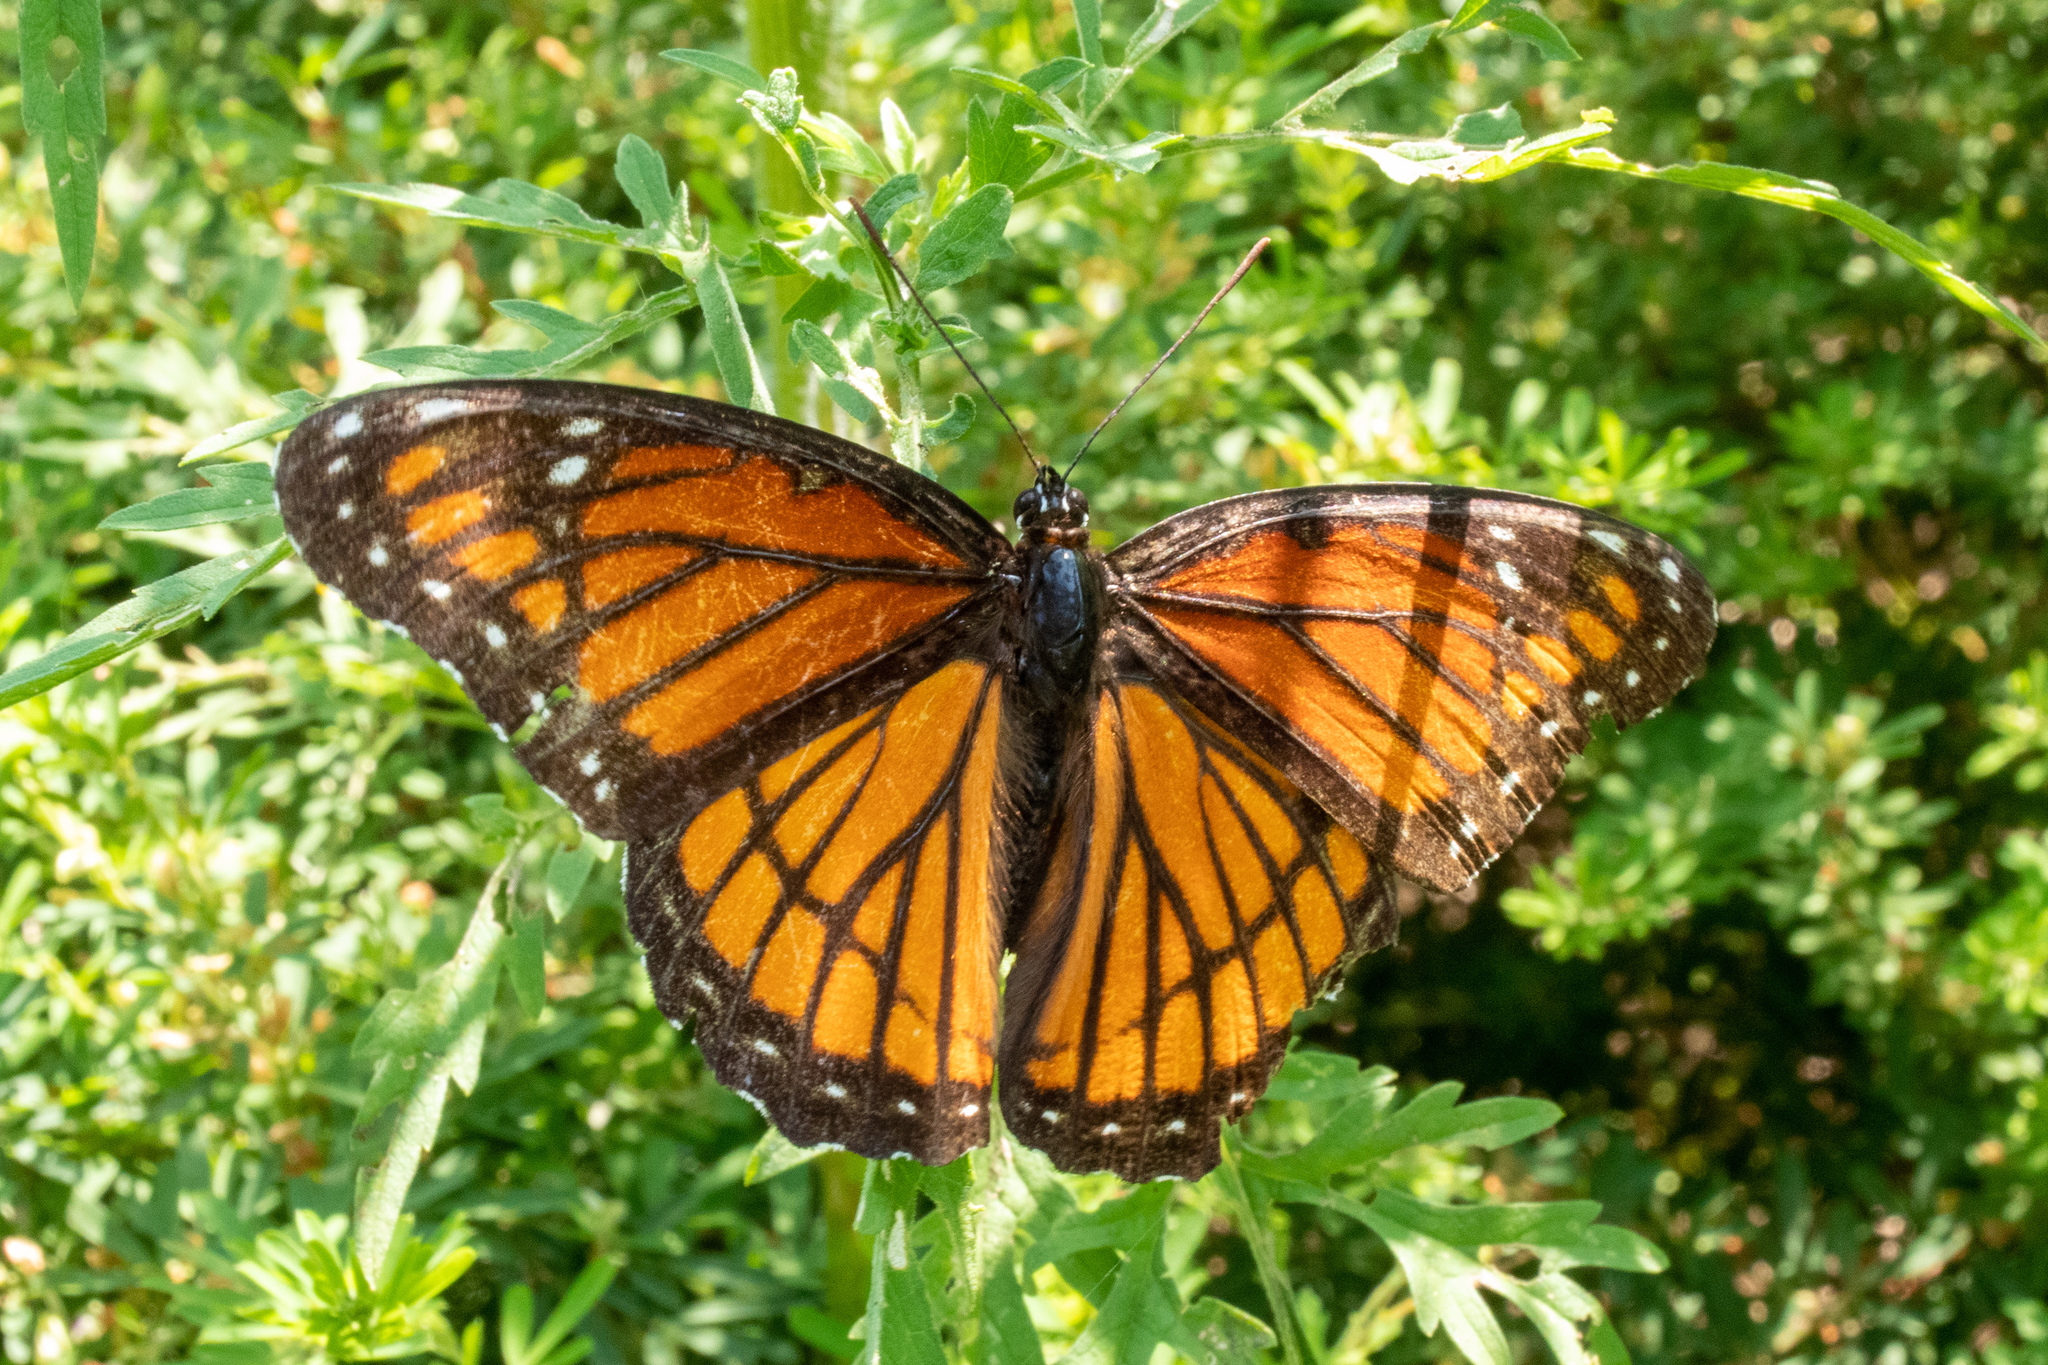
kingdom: Animalia
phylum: Arthropoda
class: Insecta
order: Lepidoptera
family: Nymphalidae
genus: Limenitis
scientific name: Limenitis archippus
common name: Viceroy
